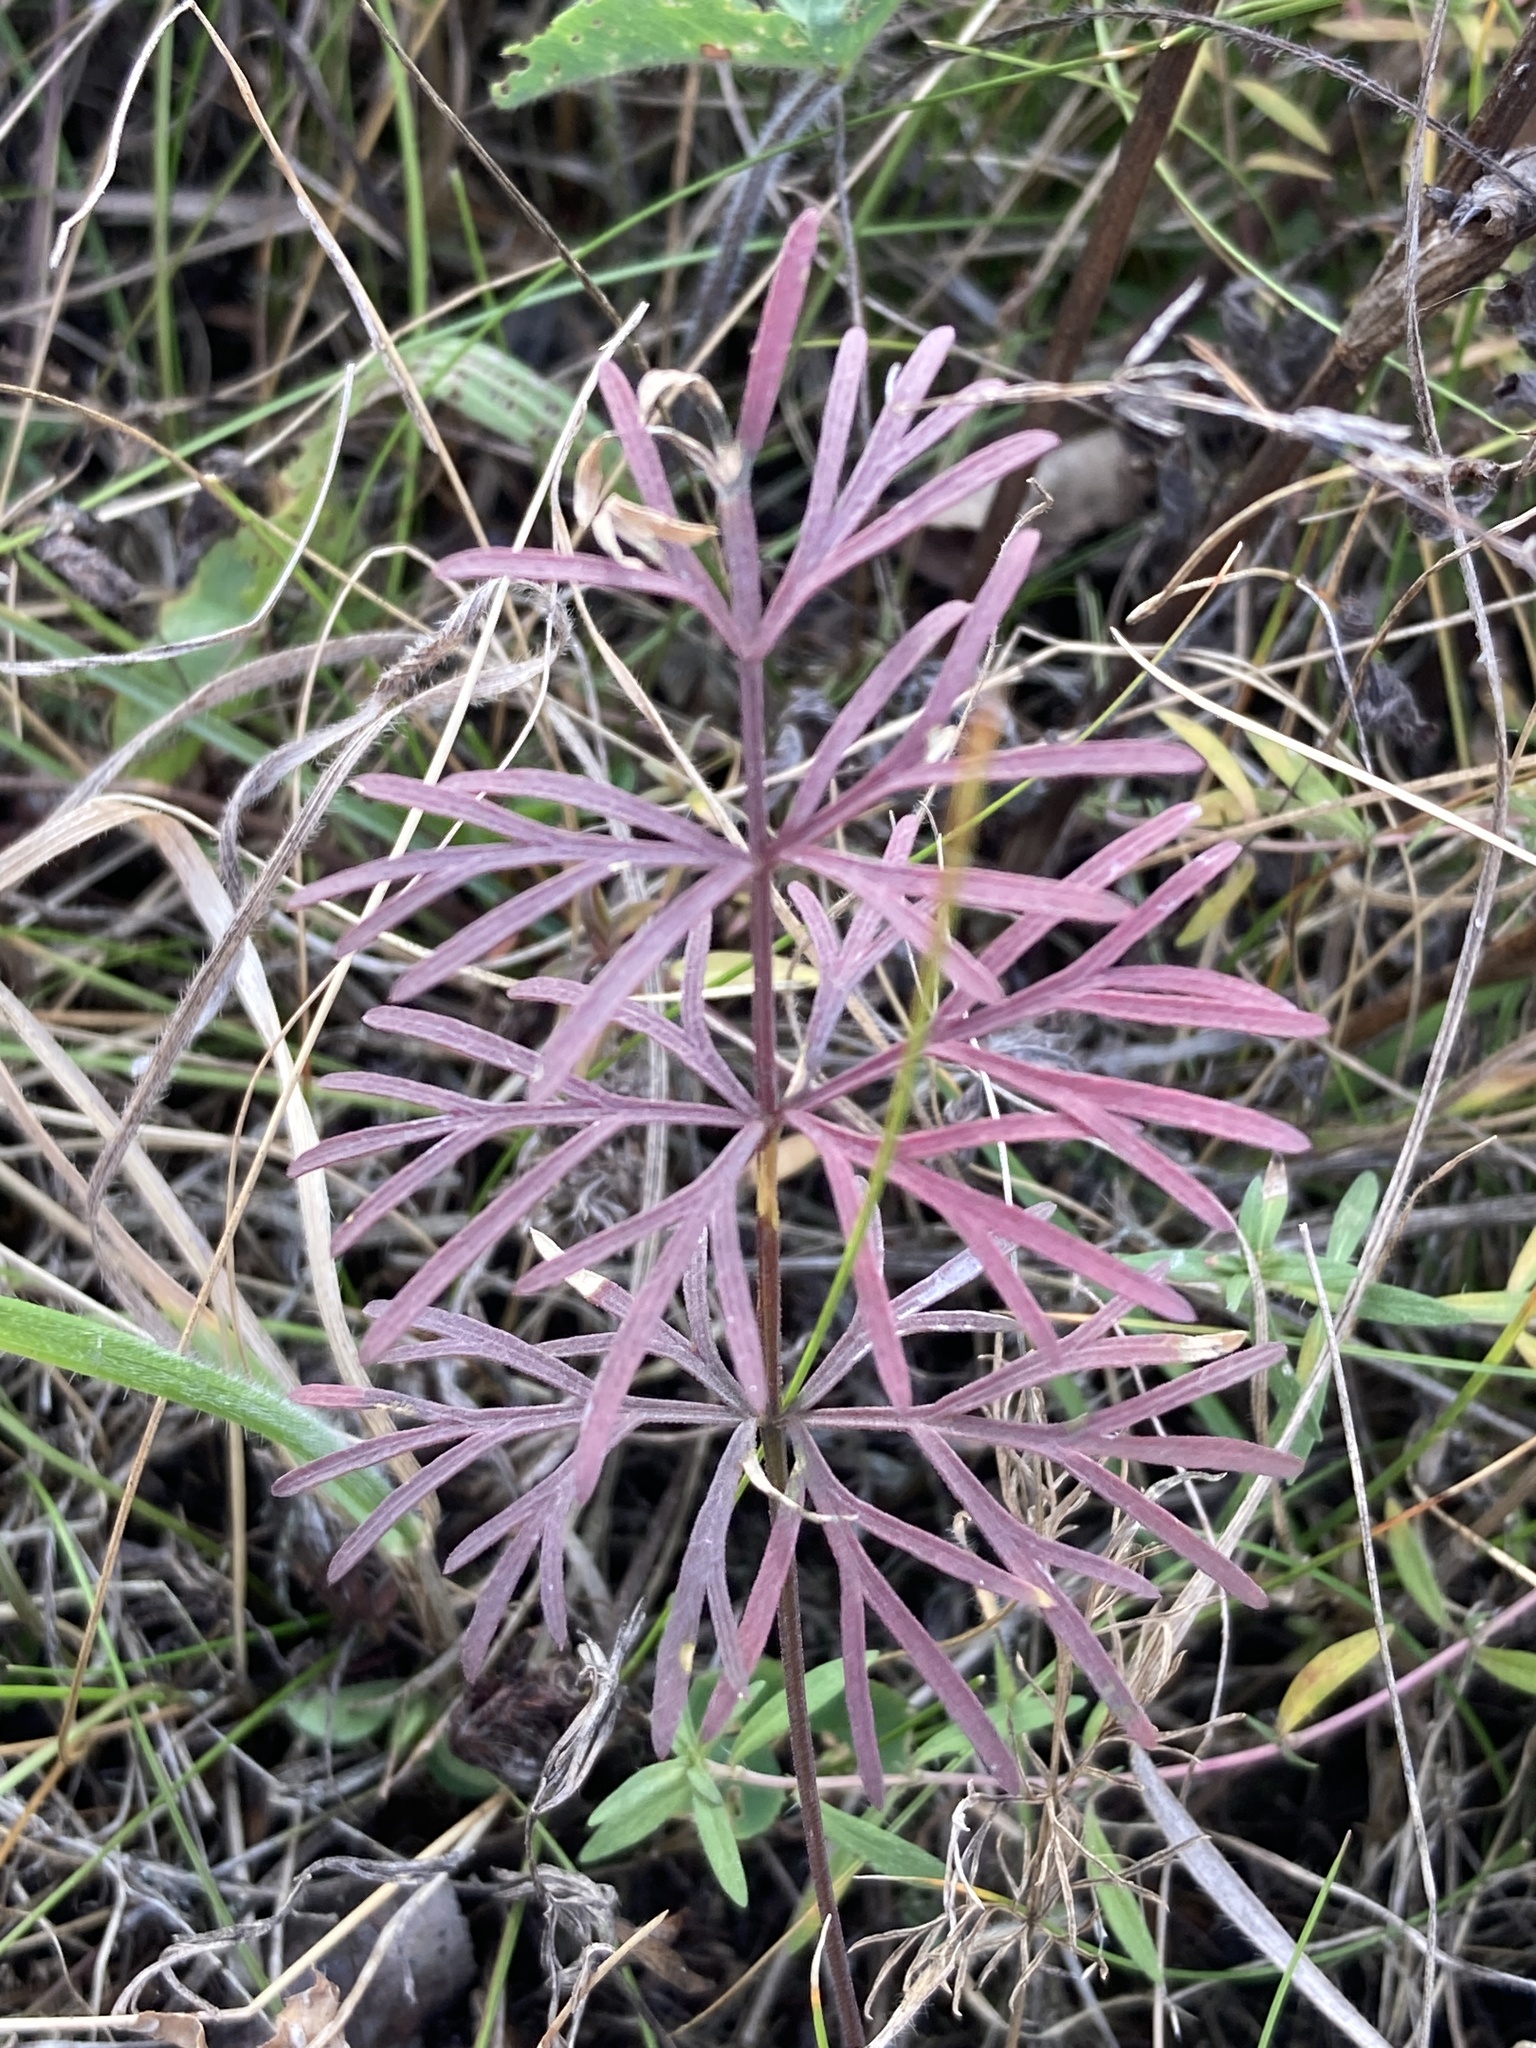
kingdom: Plantae
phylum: Tracheophyta
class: Magnoliopsida
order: Apiales
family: Apiaceae
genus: Kadenia
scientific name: Kadenia dubia
